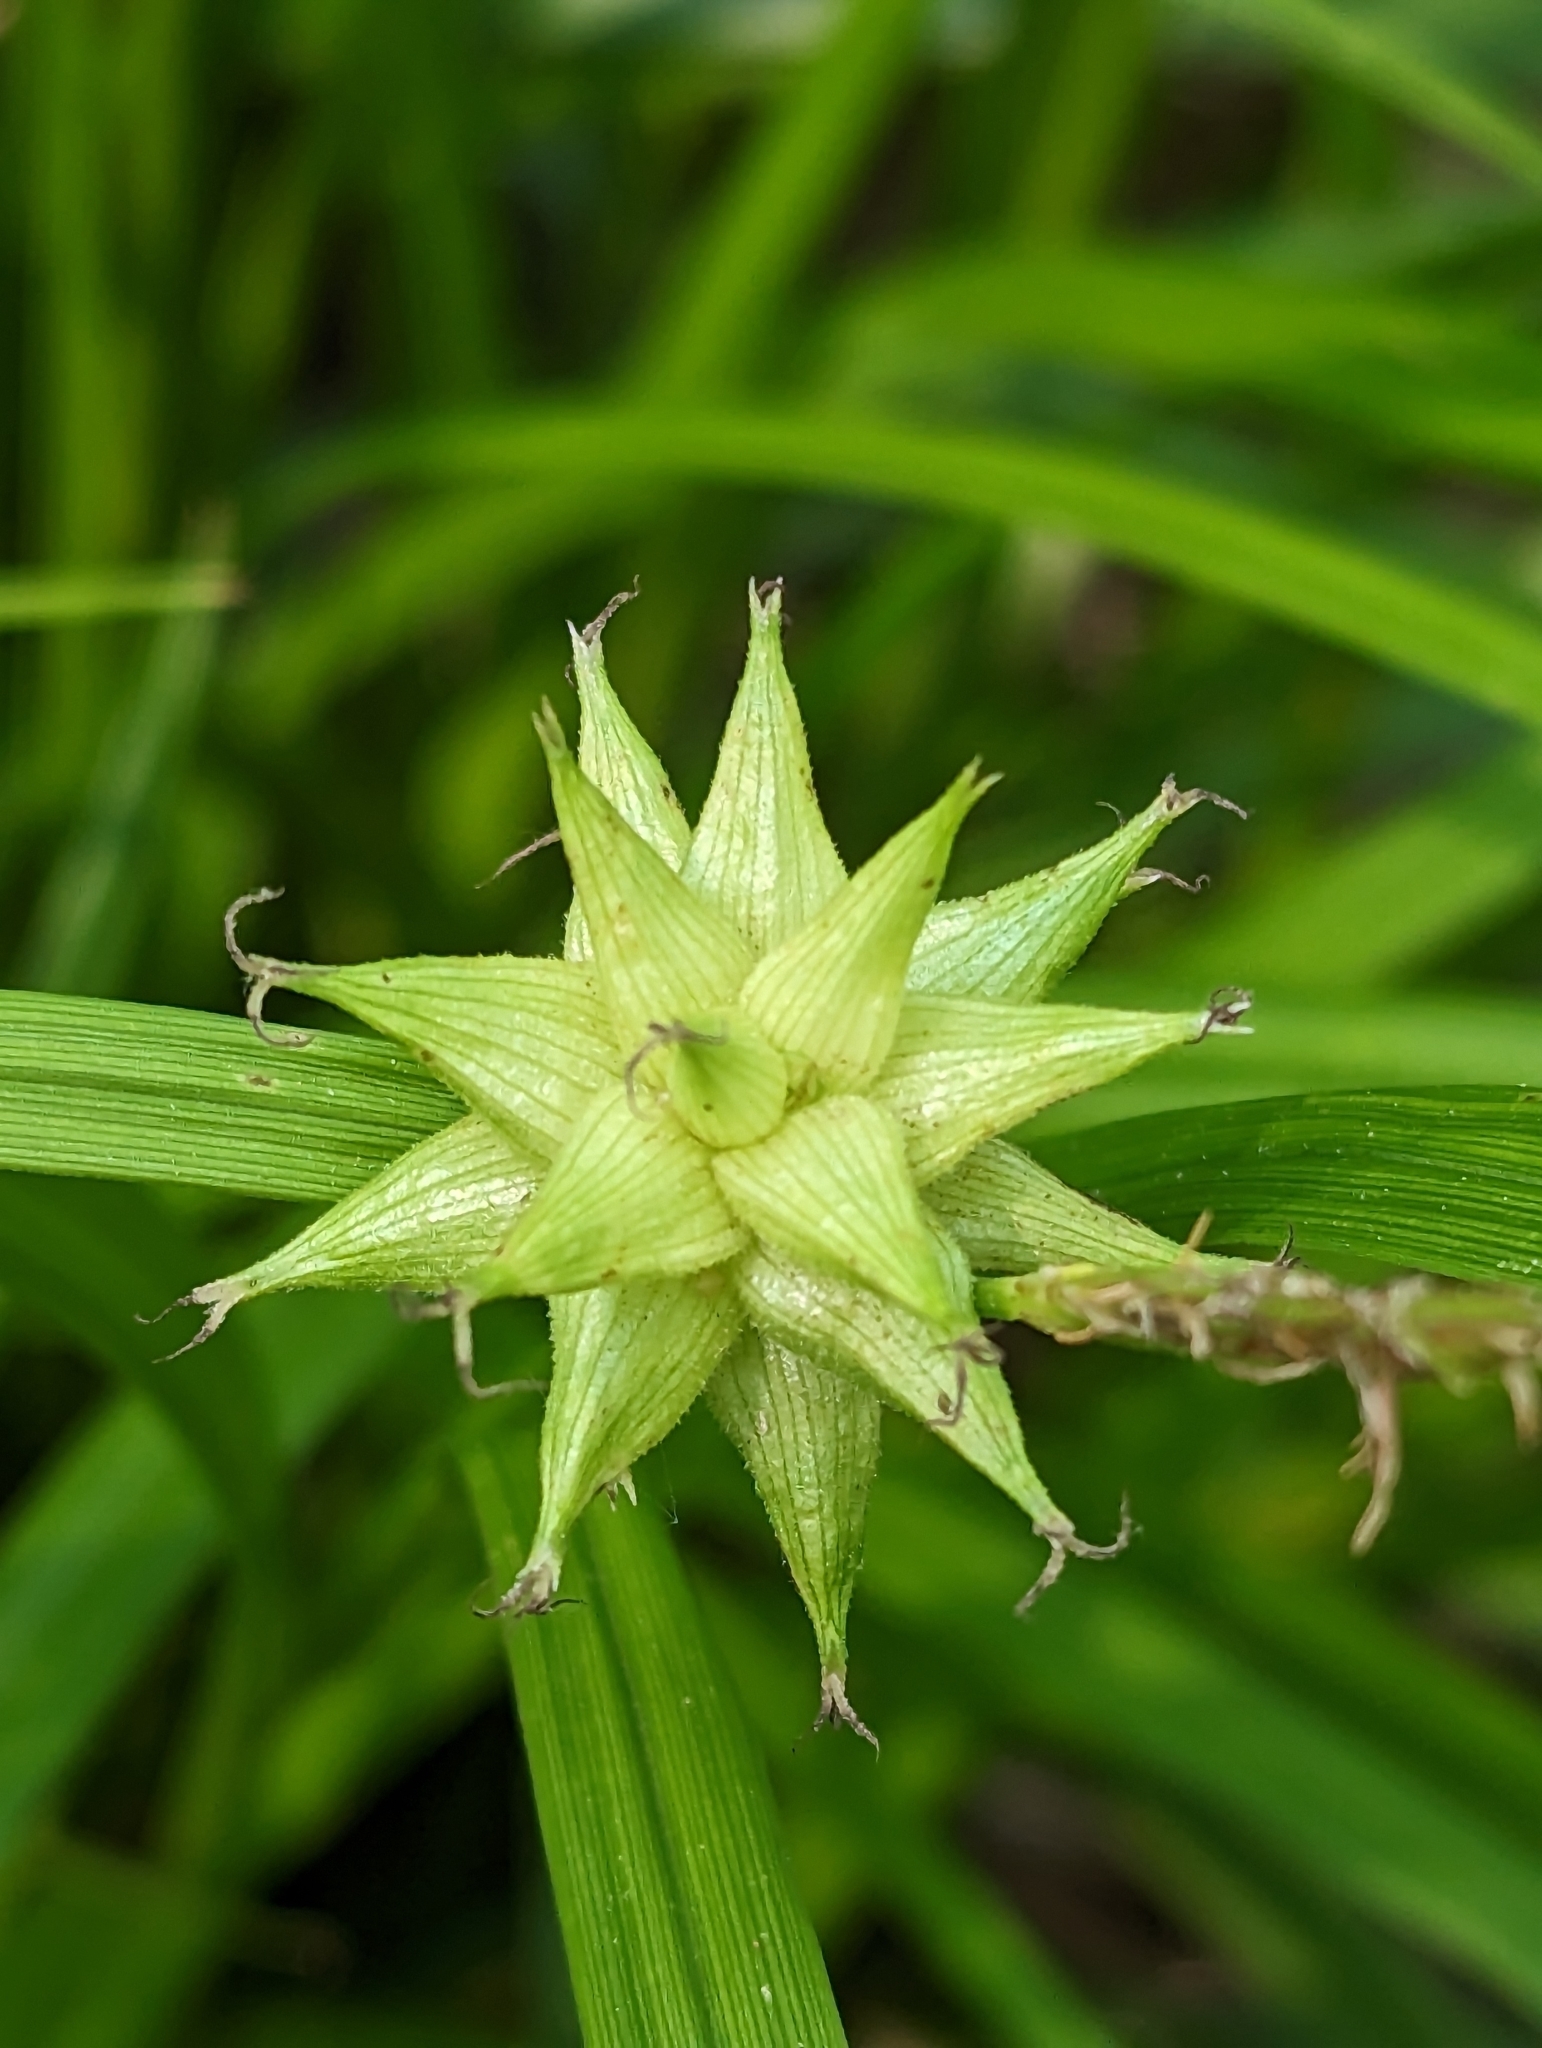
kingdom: Plantae
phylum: Tracheophyta
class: Liliopsida
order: Poales
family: Cyperaceae
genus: Carex
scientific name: Carex grayi
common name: Asa gray's sedge
